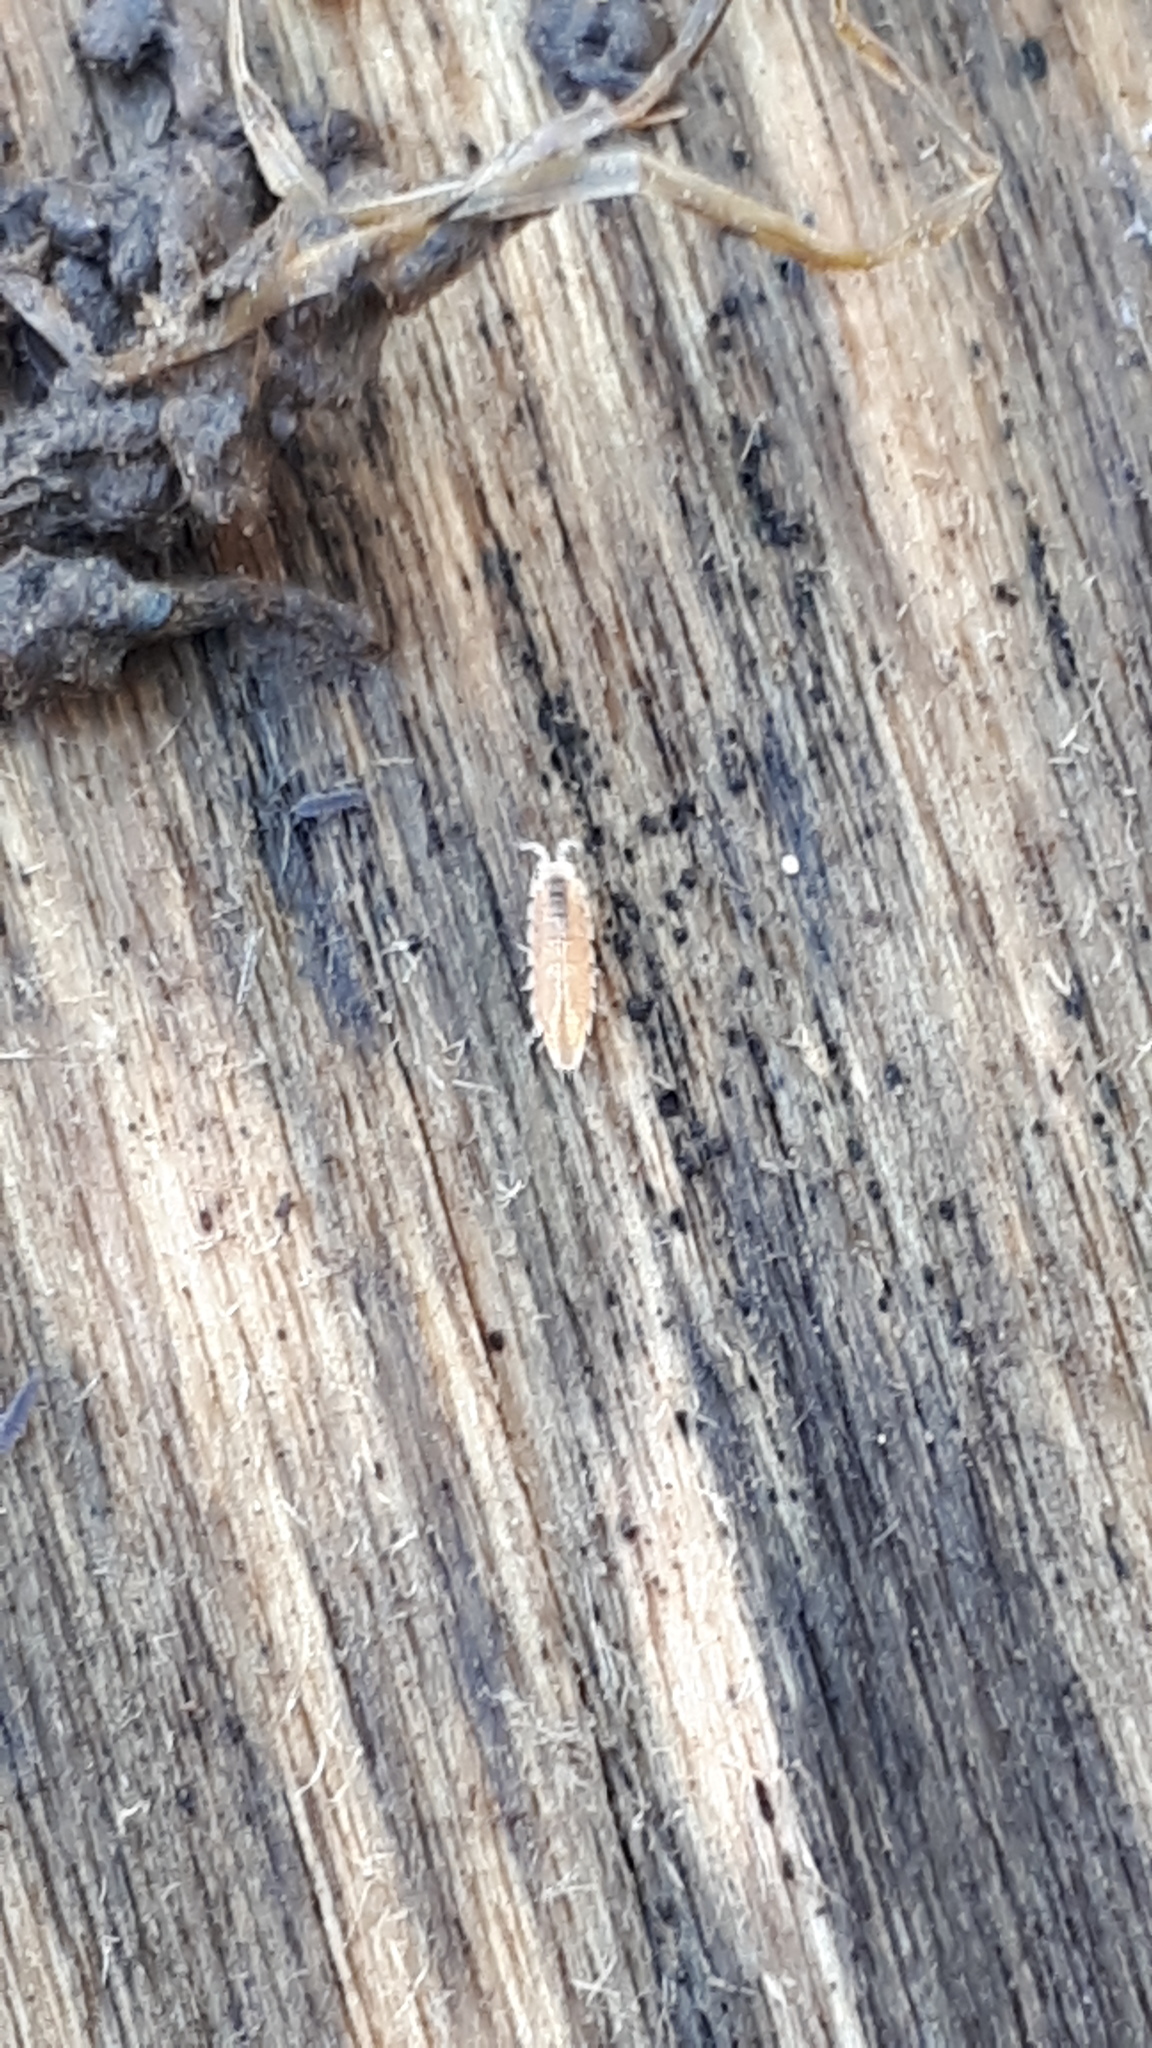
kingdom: Animalia
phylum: Arthropoda
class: Malacostraca
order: Isopoda
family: Trichoniscidae
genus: Trichoniscus
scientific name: Trichoniscus pygmaeus
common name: Isopod
